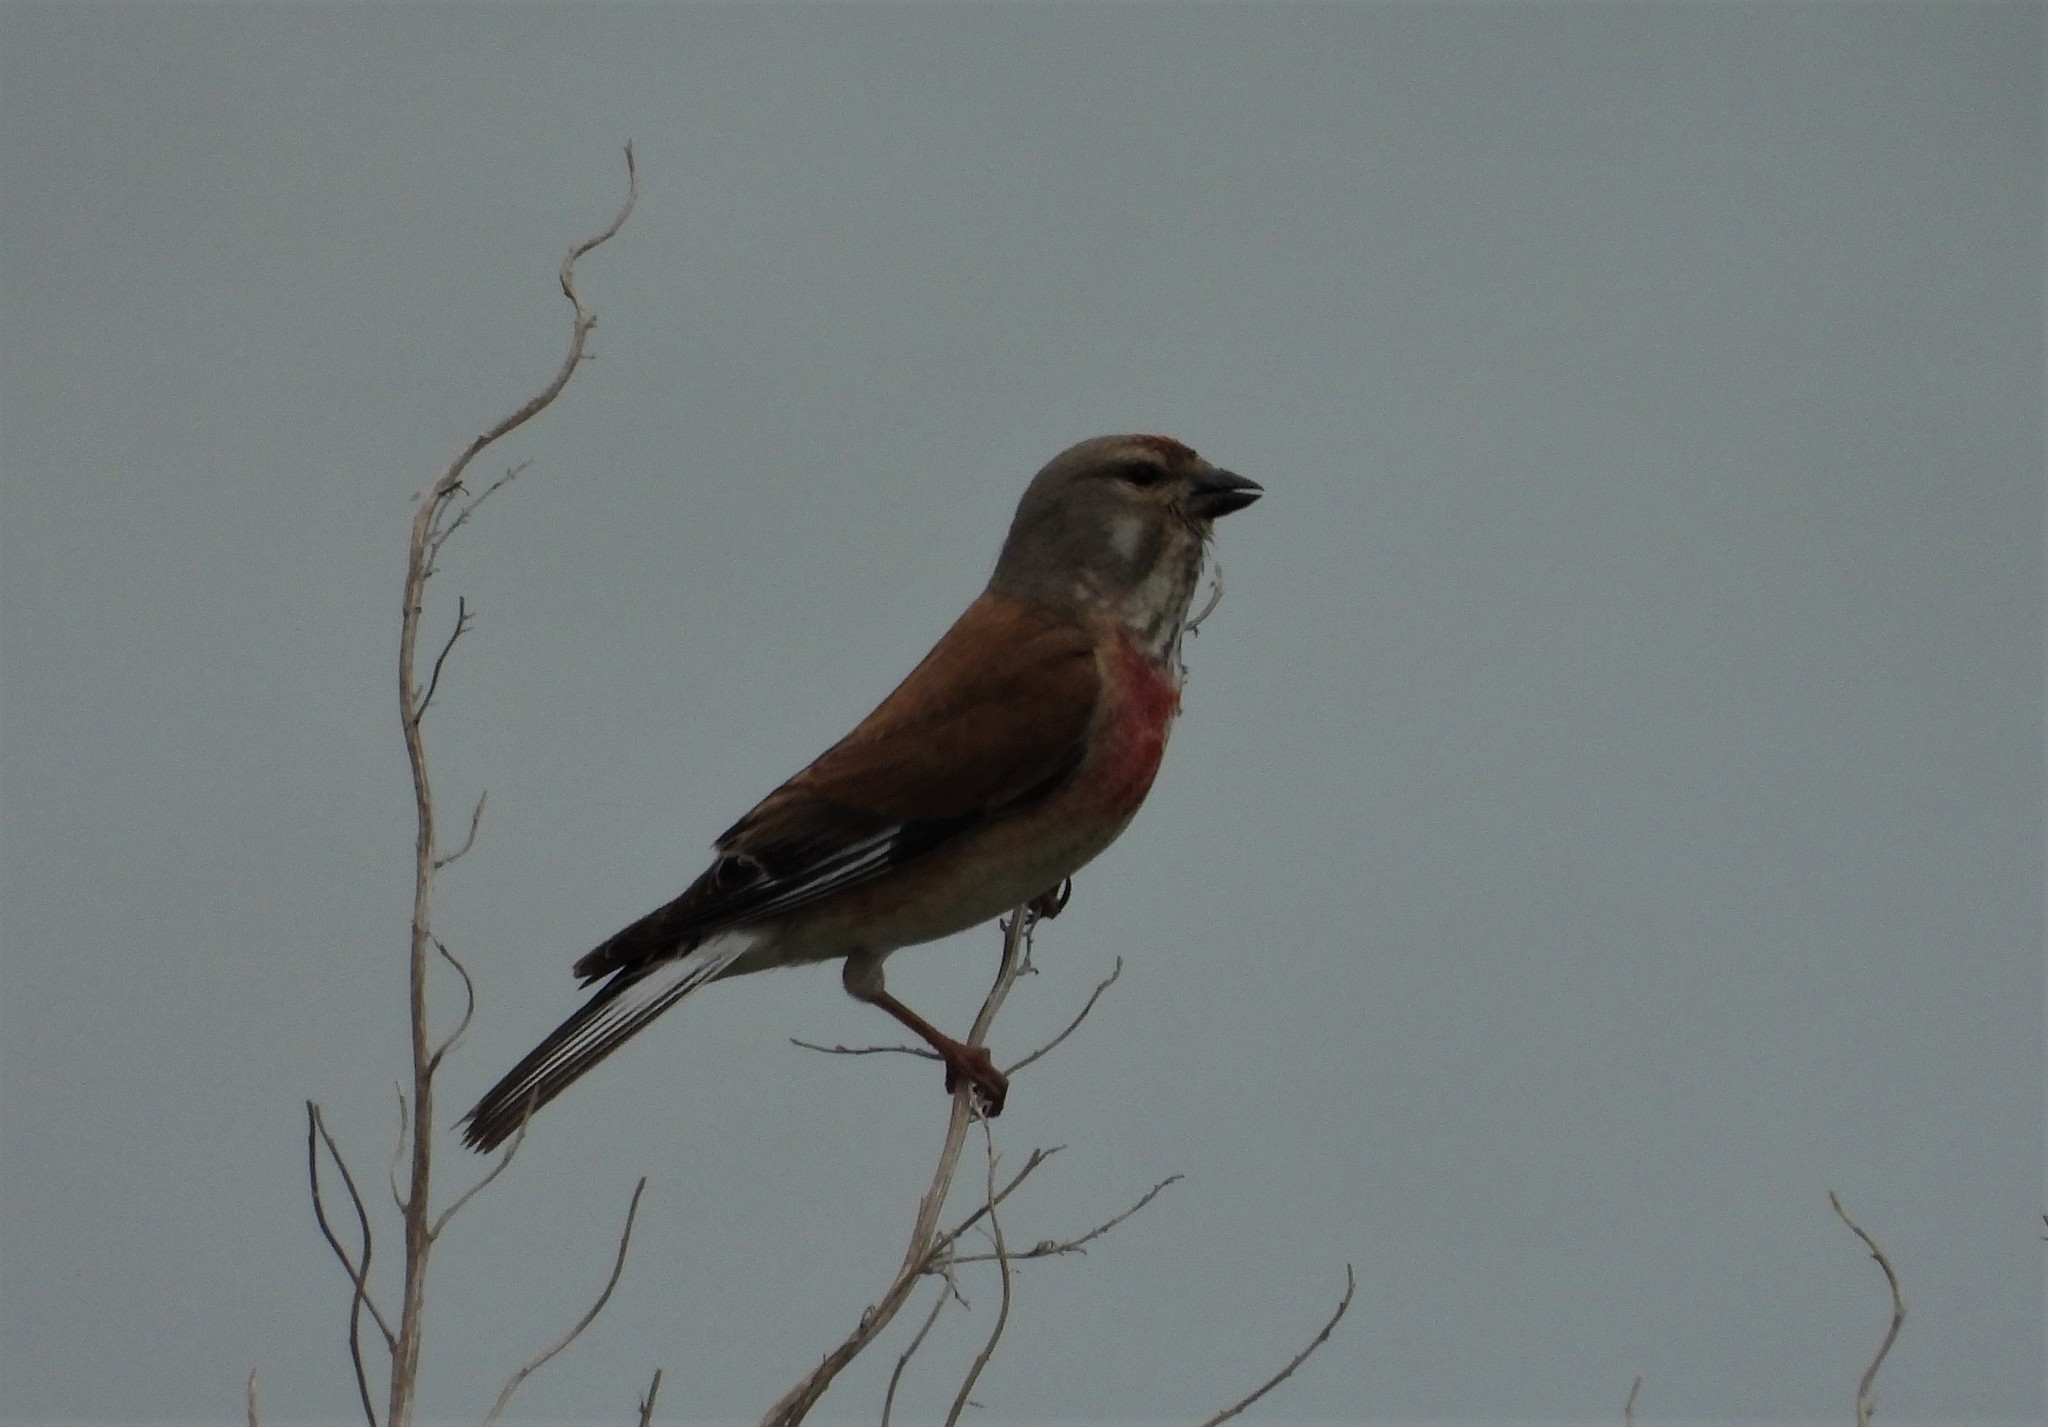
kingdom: Animalia
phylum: Chordata
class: Aves
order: Passeriformes
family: Fringillidae
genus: Linaria
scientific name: Linaria cannabina
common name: Common linnet
